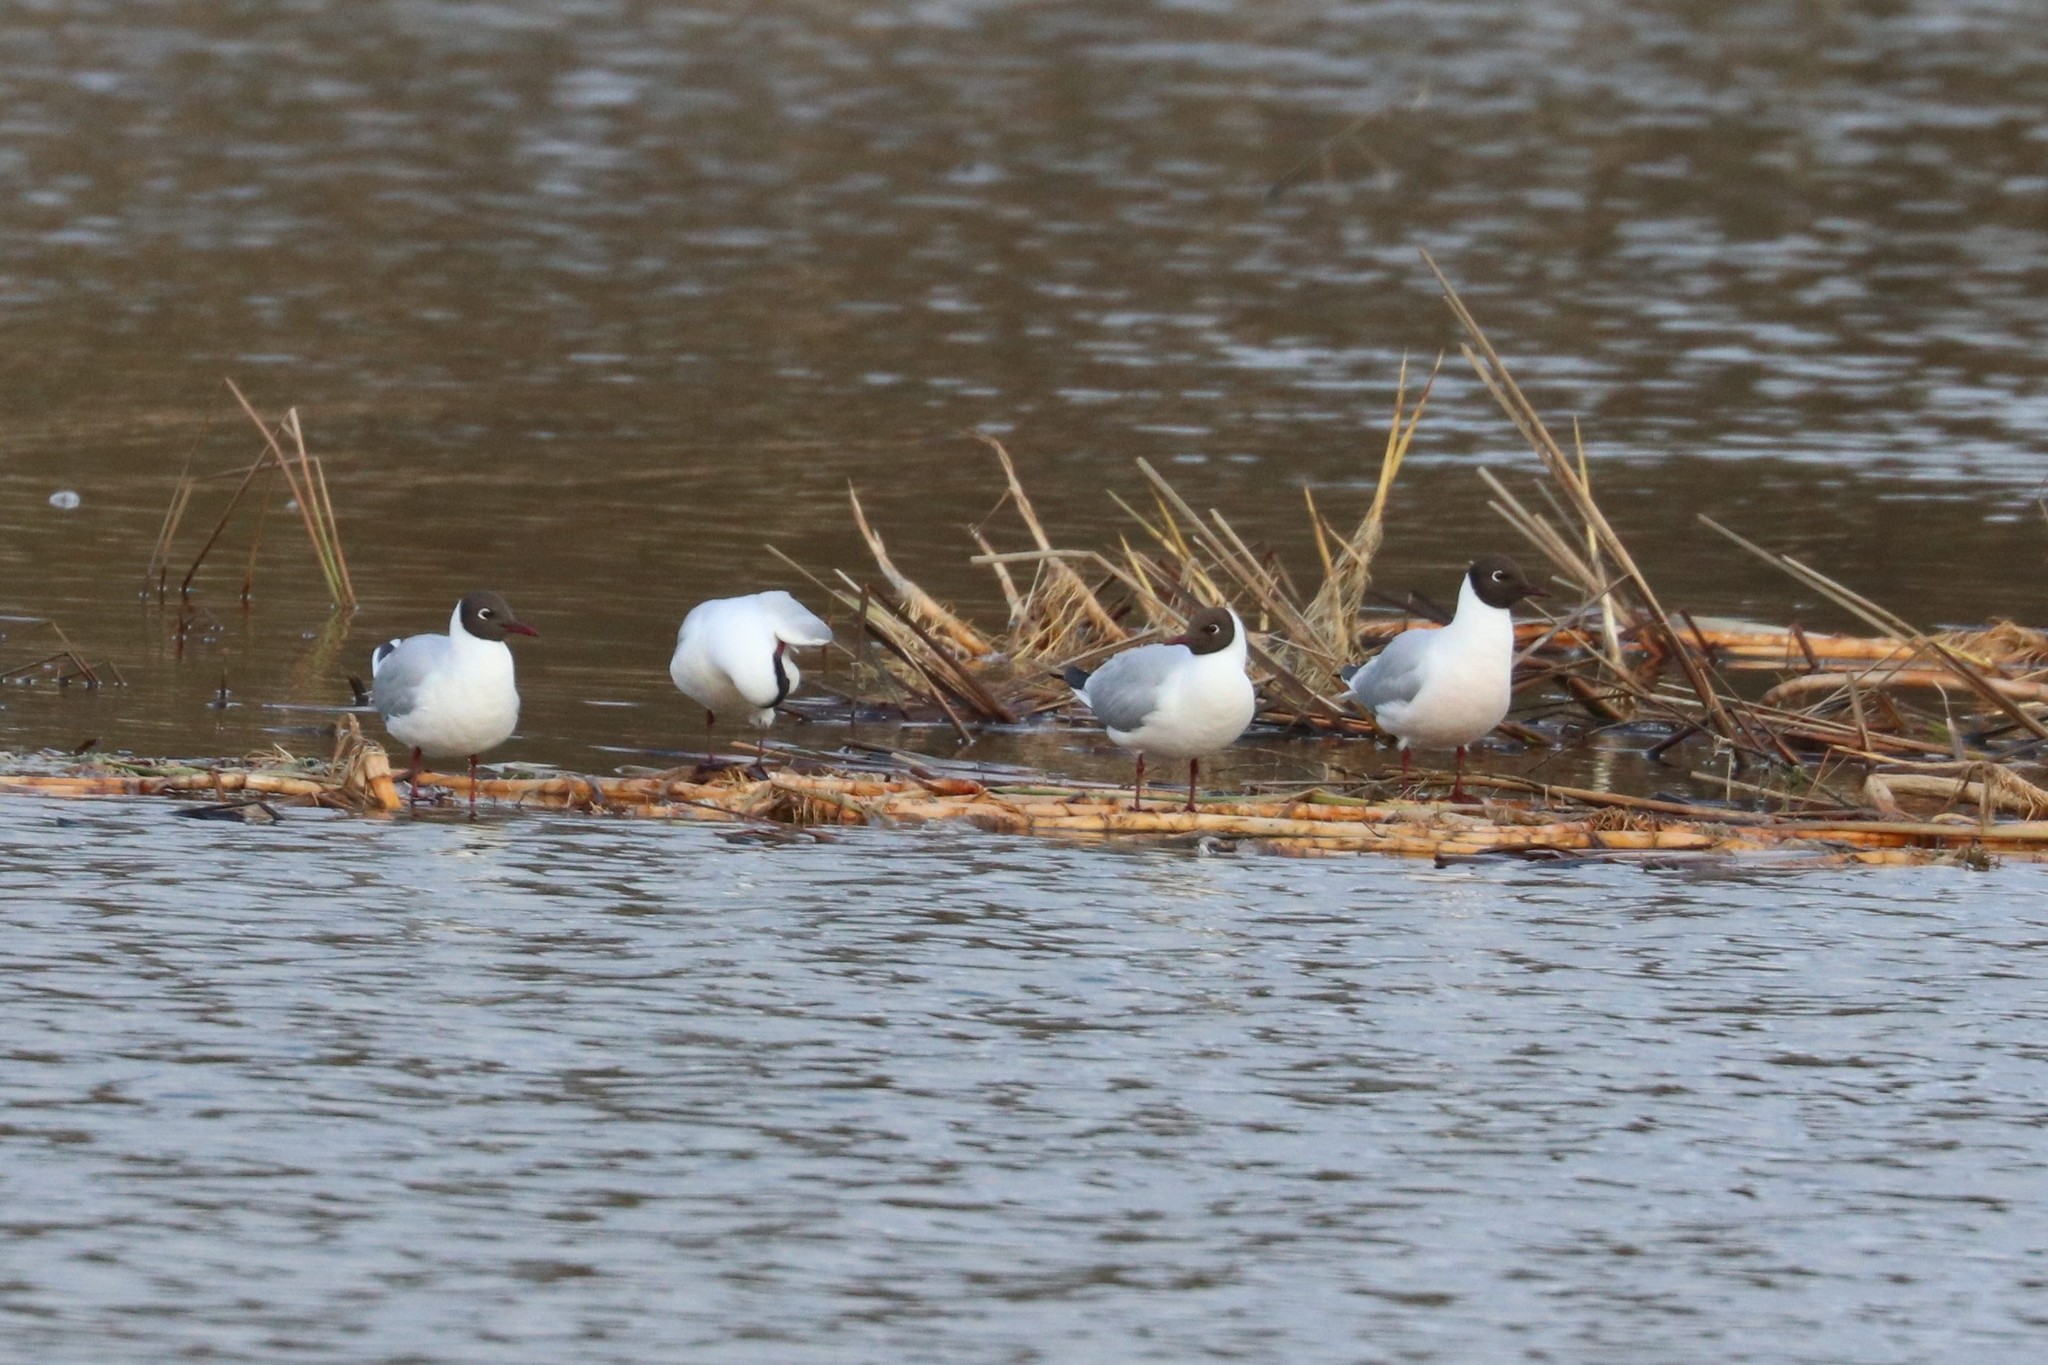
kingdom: Animalia
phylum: Chordata
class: Aves
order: Charadriiformes
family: Laridae
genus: Chroicocephalus
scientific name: Chroicocephalus ridibundus
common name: Black-headed gull
